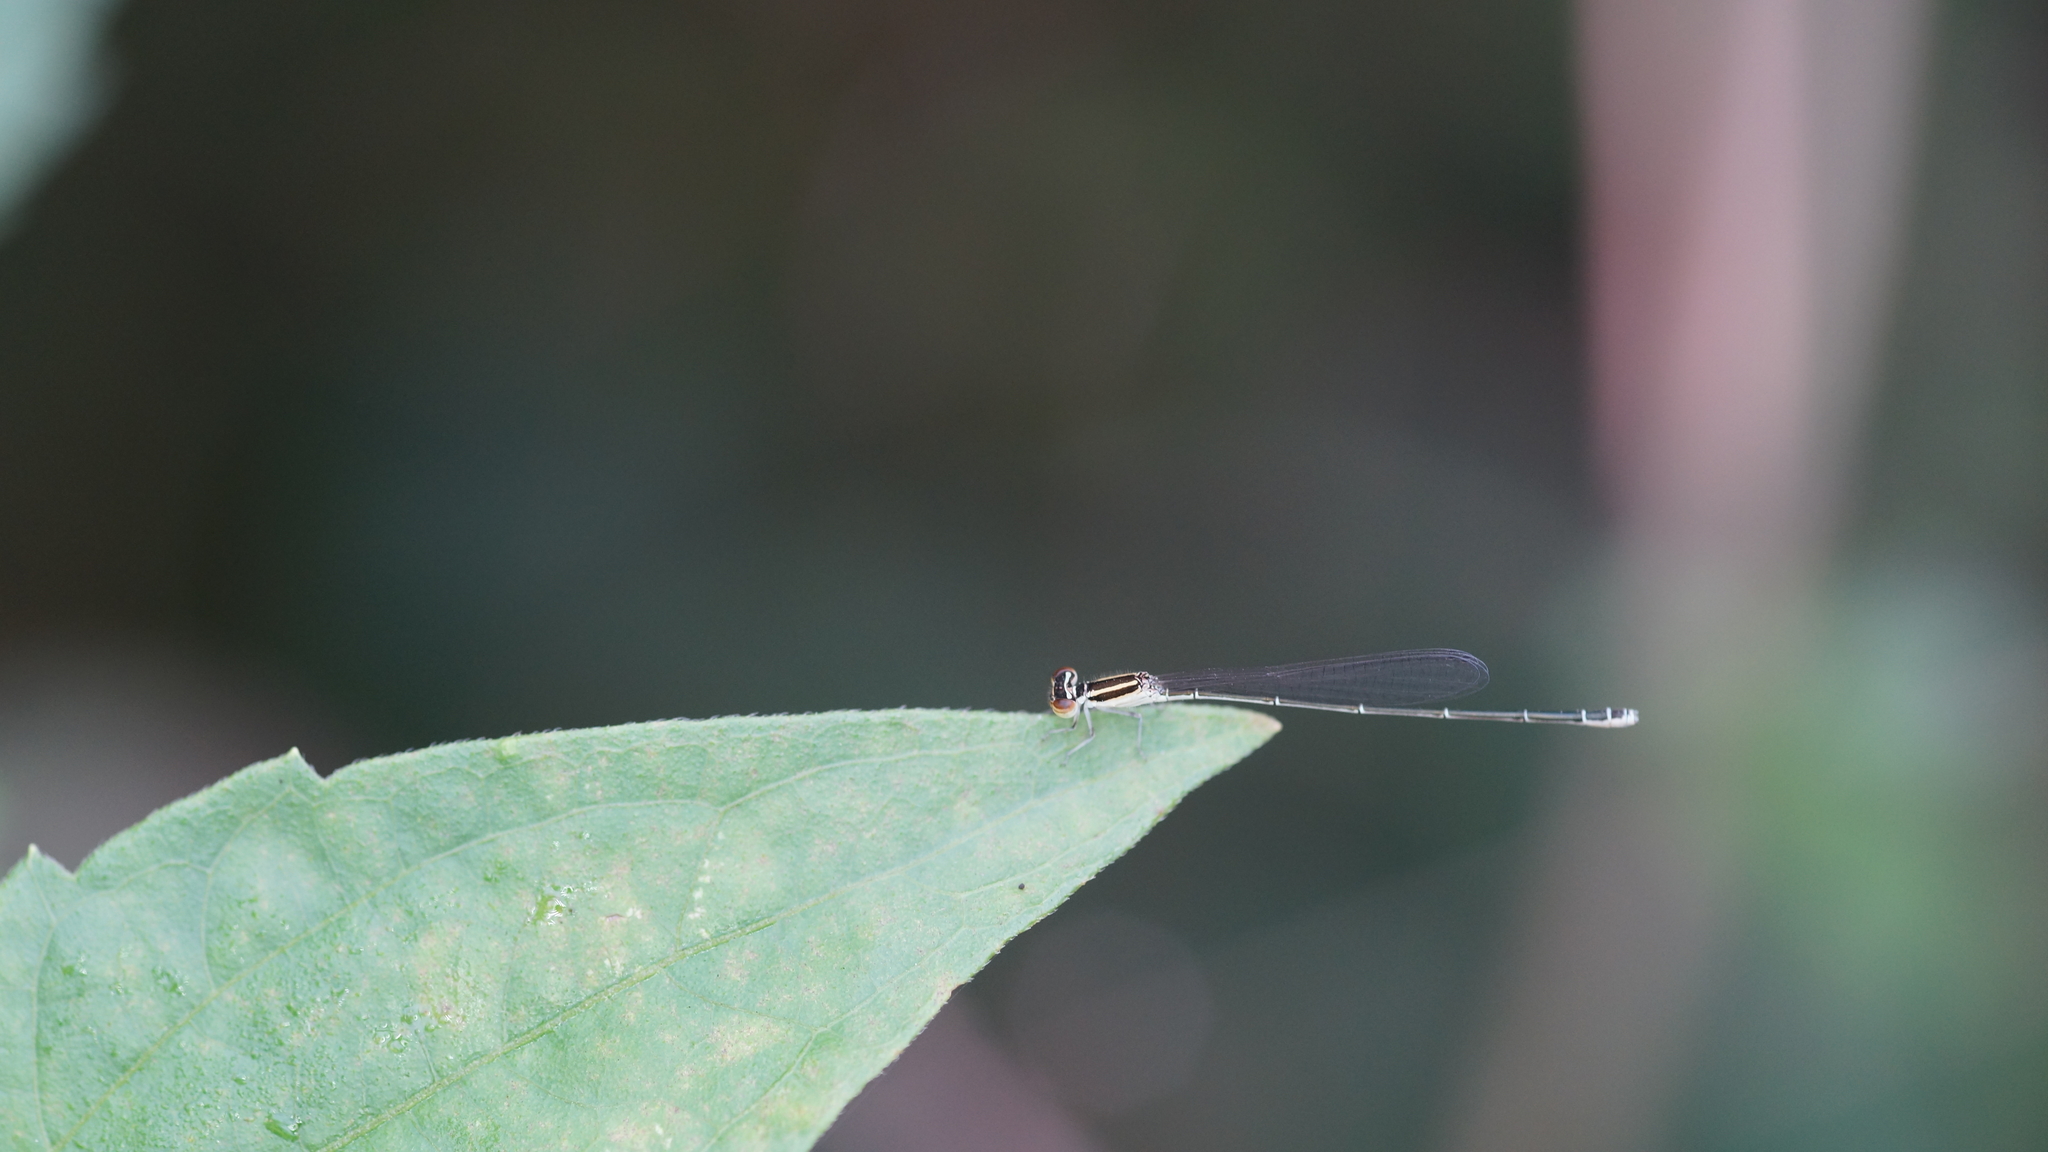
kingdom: Animalia
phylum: Arthropoda
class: Insecta
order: Odonata
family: Coenagrionidae
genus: Aciagrion
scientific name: Aciagrion borneense
